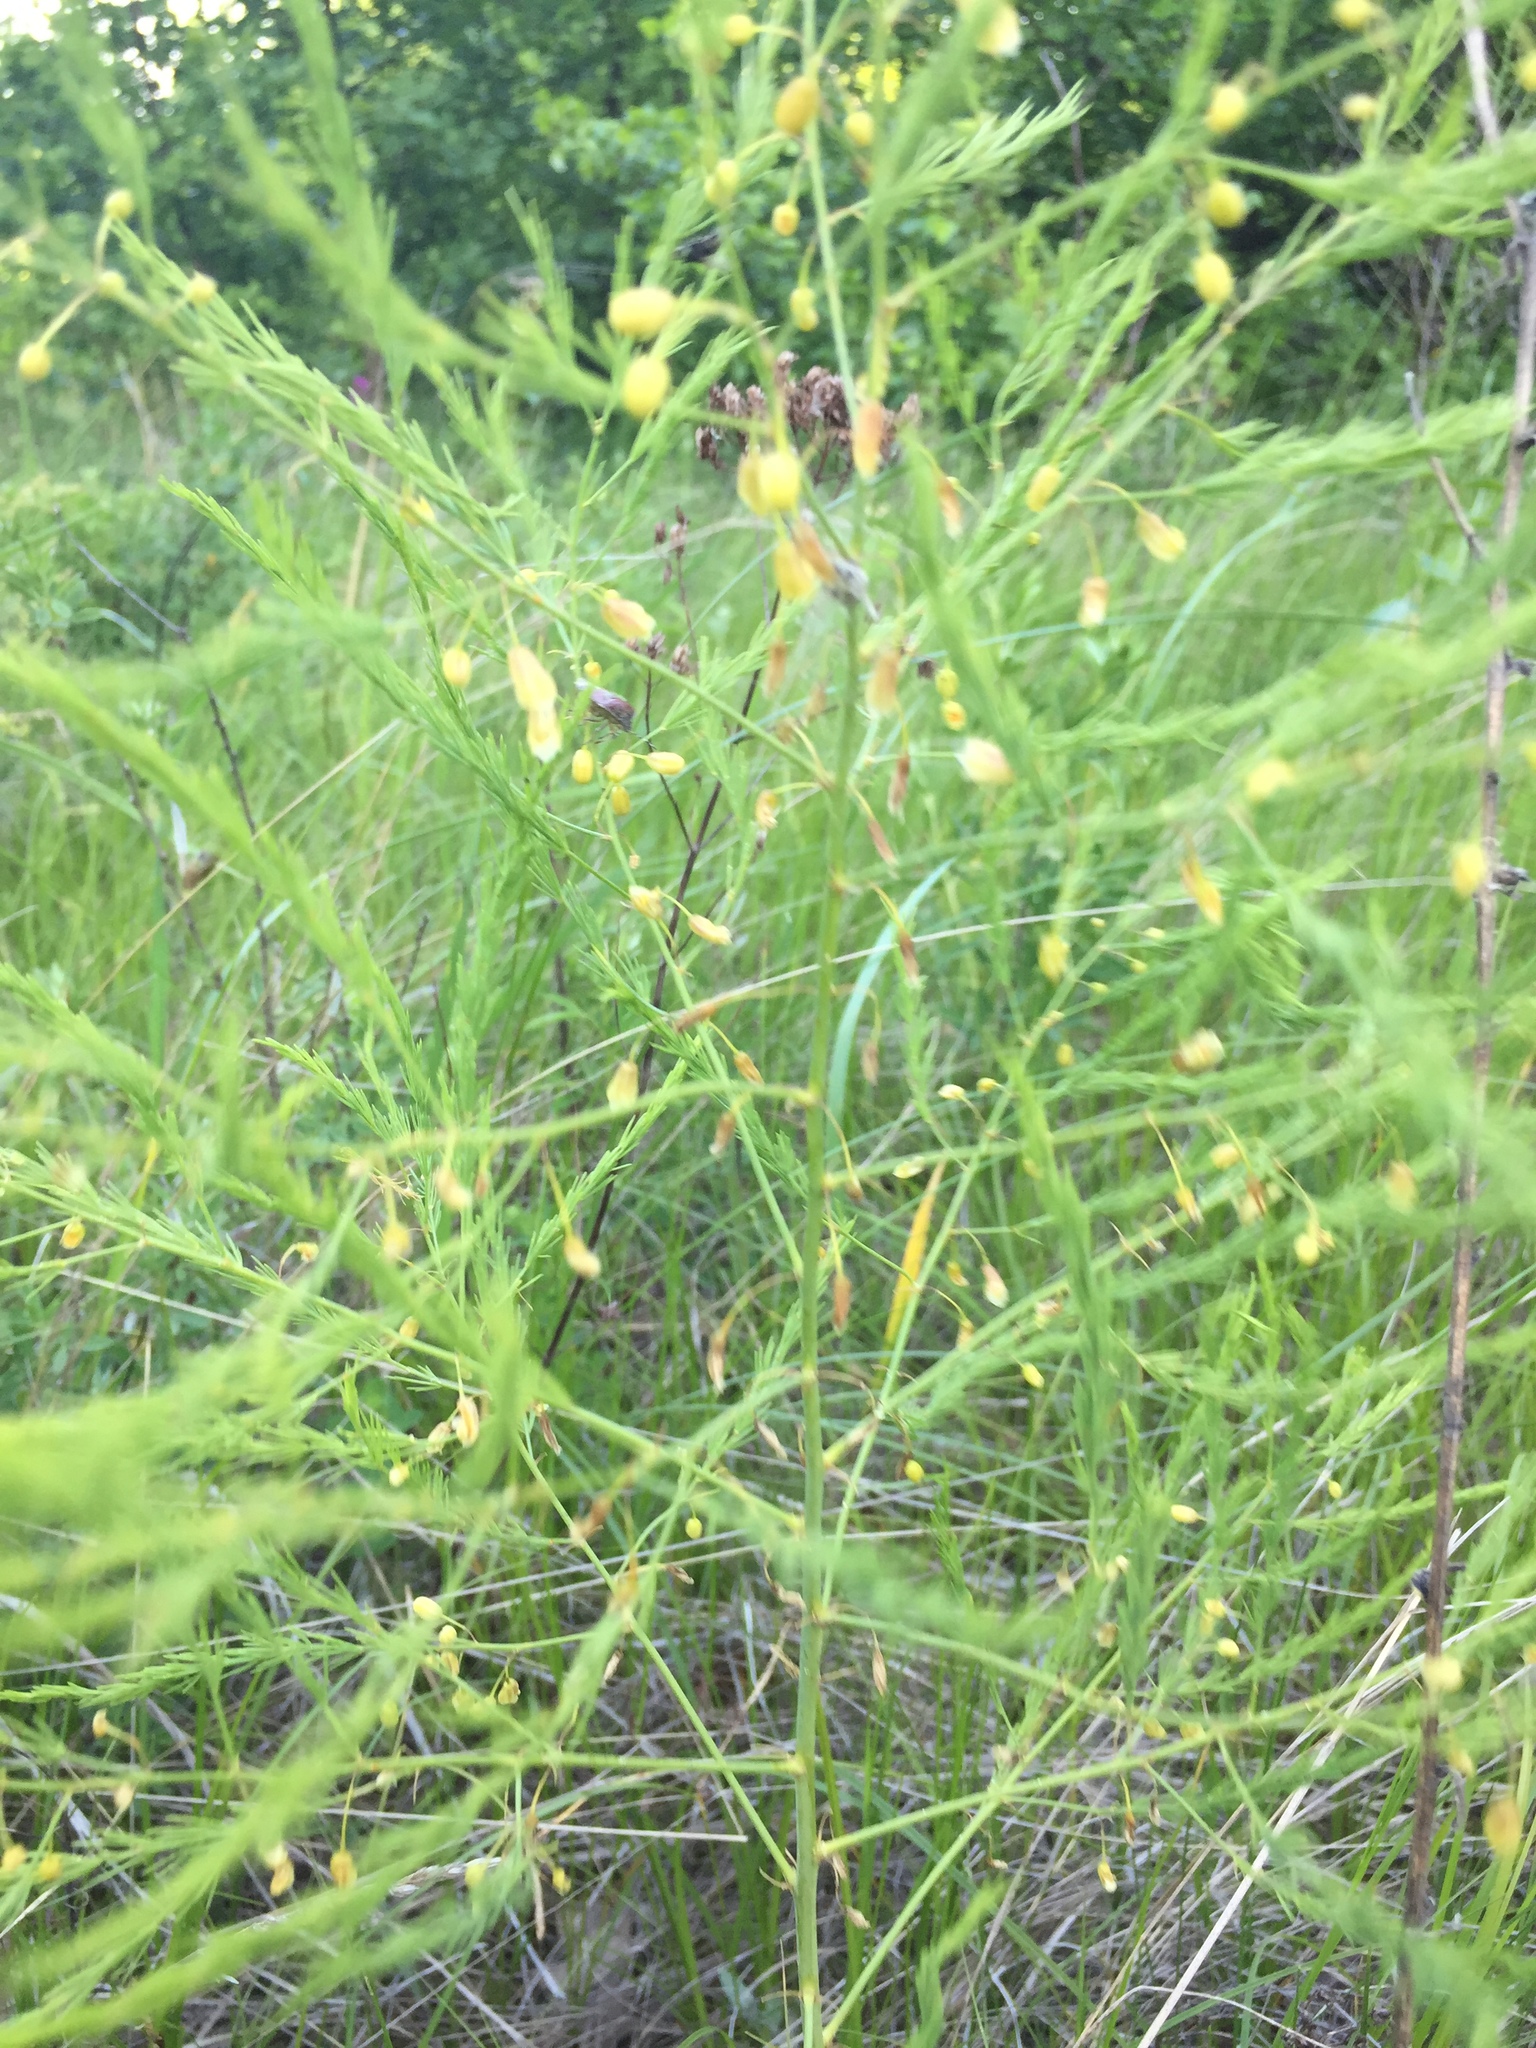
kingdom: Plantae
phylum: Tracheophyta
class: Liliopsida
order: Asparagales
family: Asparagaceae
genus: Asparagus
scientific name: Asparagus officinalis
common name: Garden asparagus
